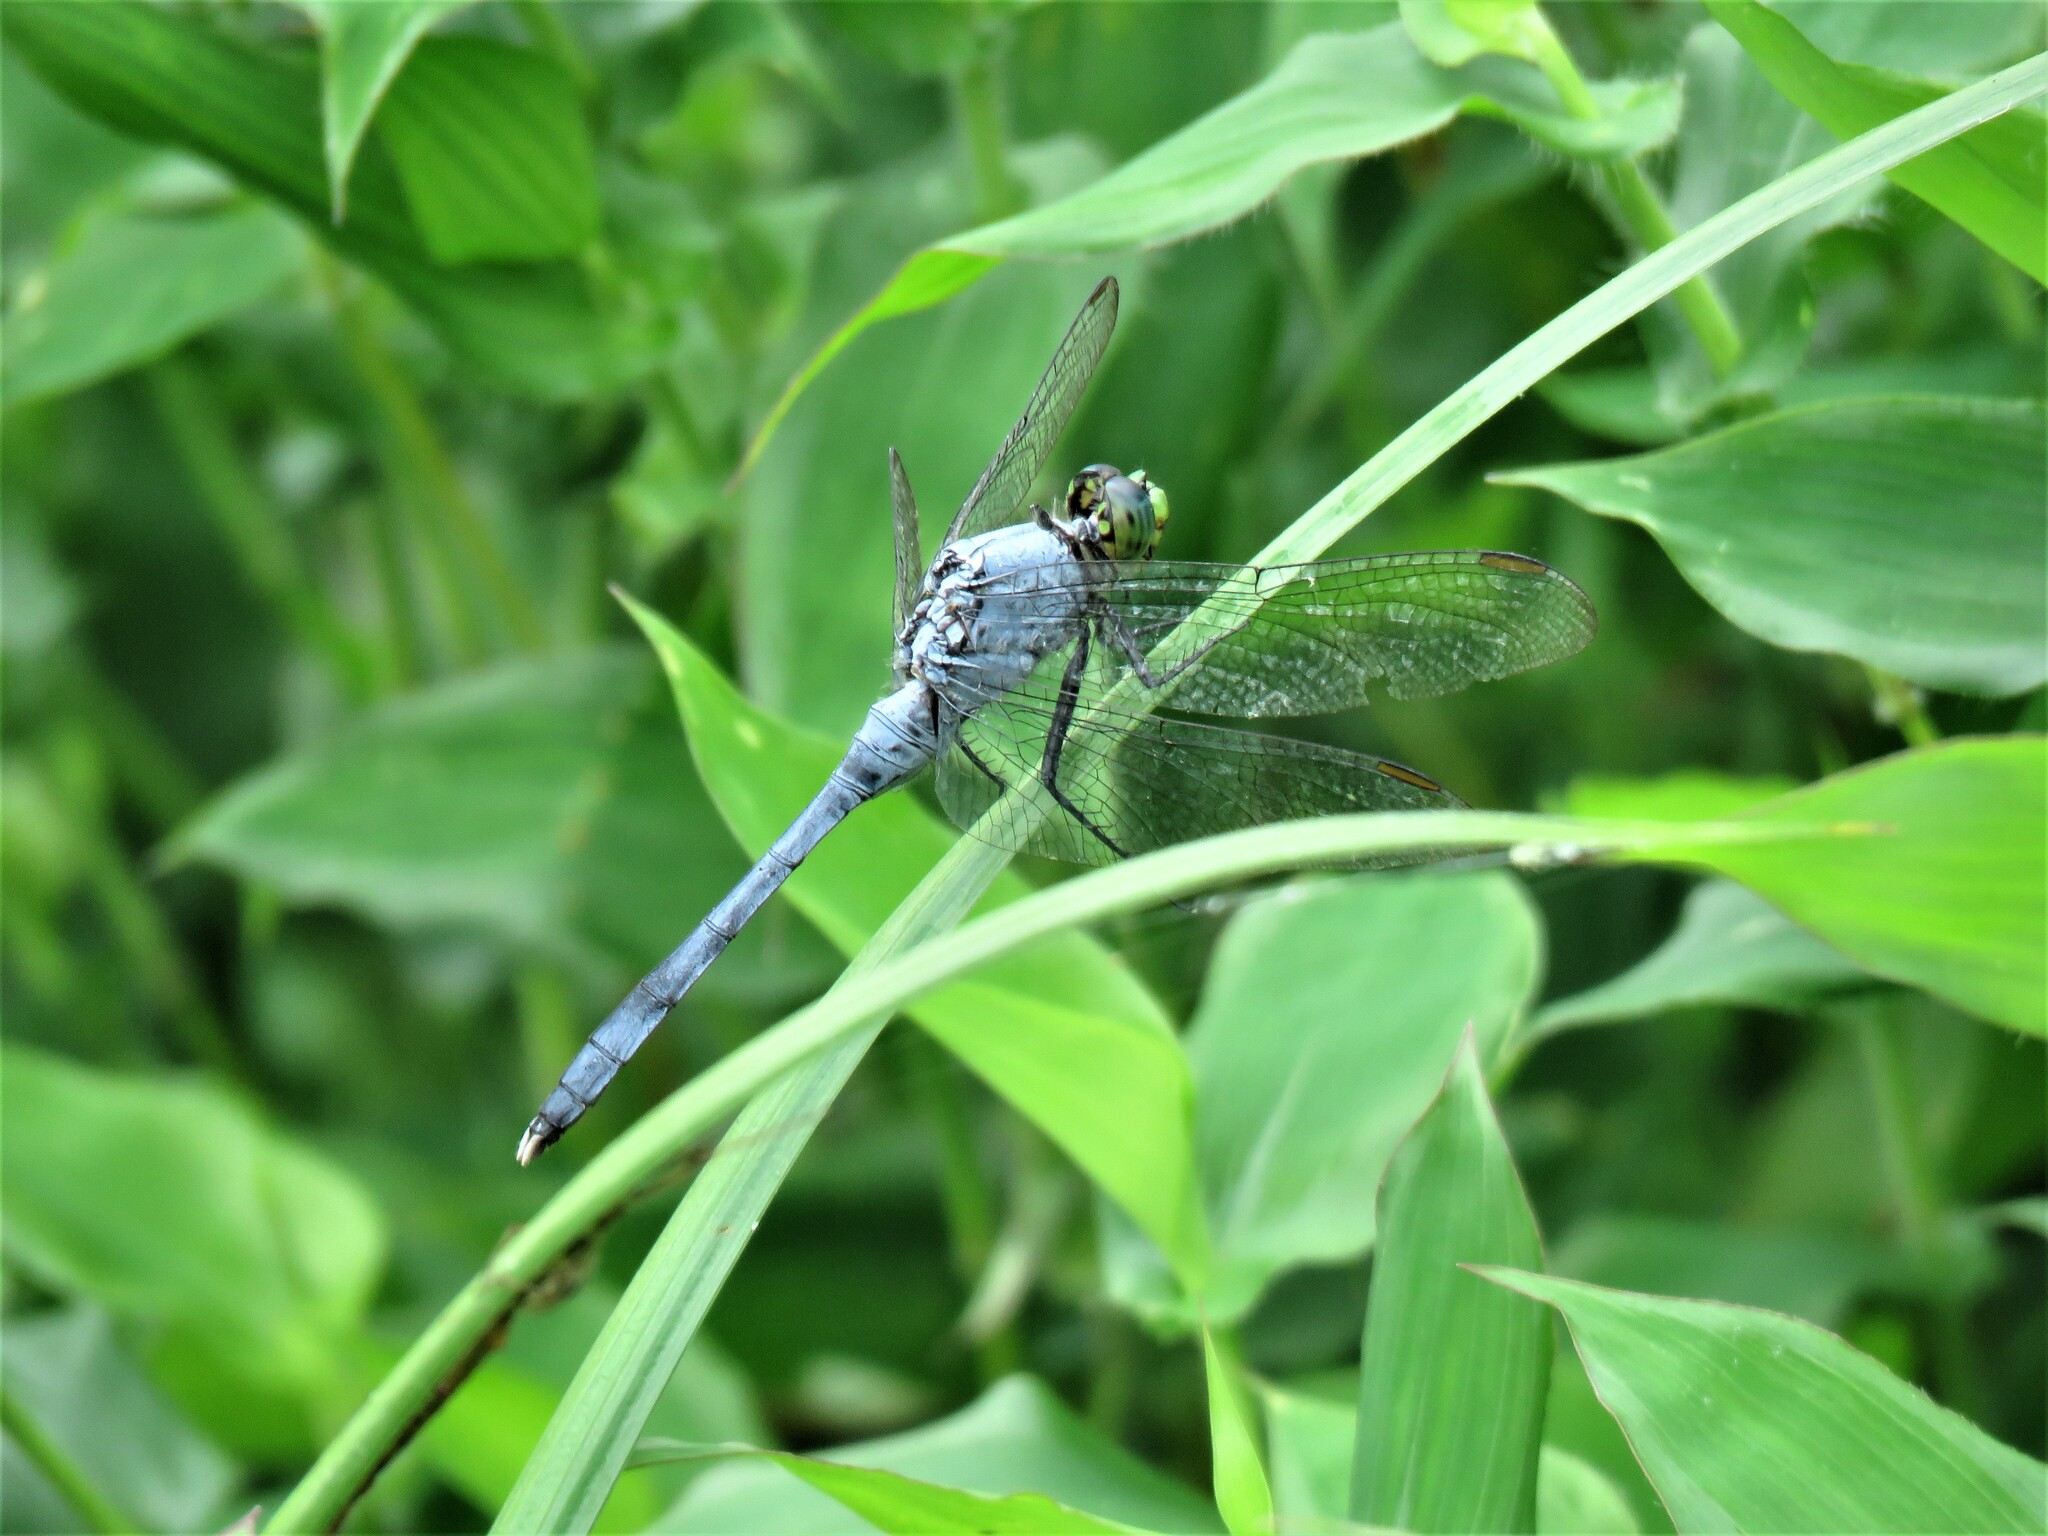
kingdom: Animalia
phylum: Arthropoda
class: Insecta
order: Odonata
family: Libellulidae
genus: Erythemis
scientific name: Erythemis simplicicollis
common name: Eastern pondhawk
